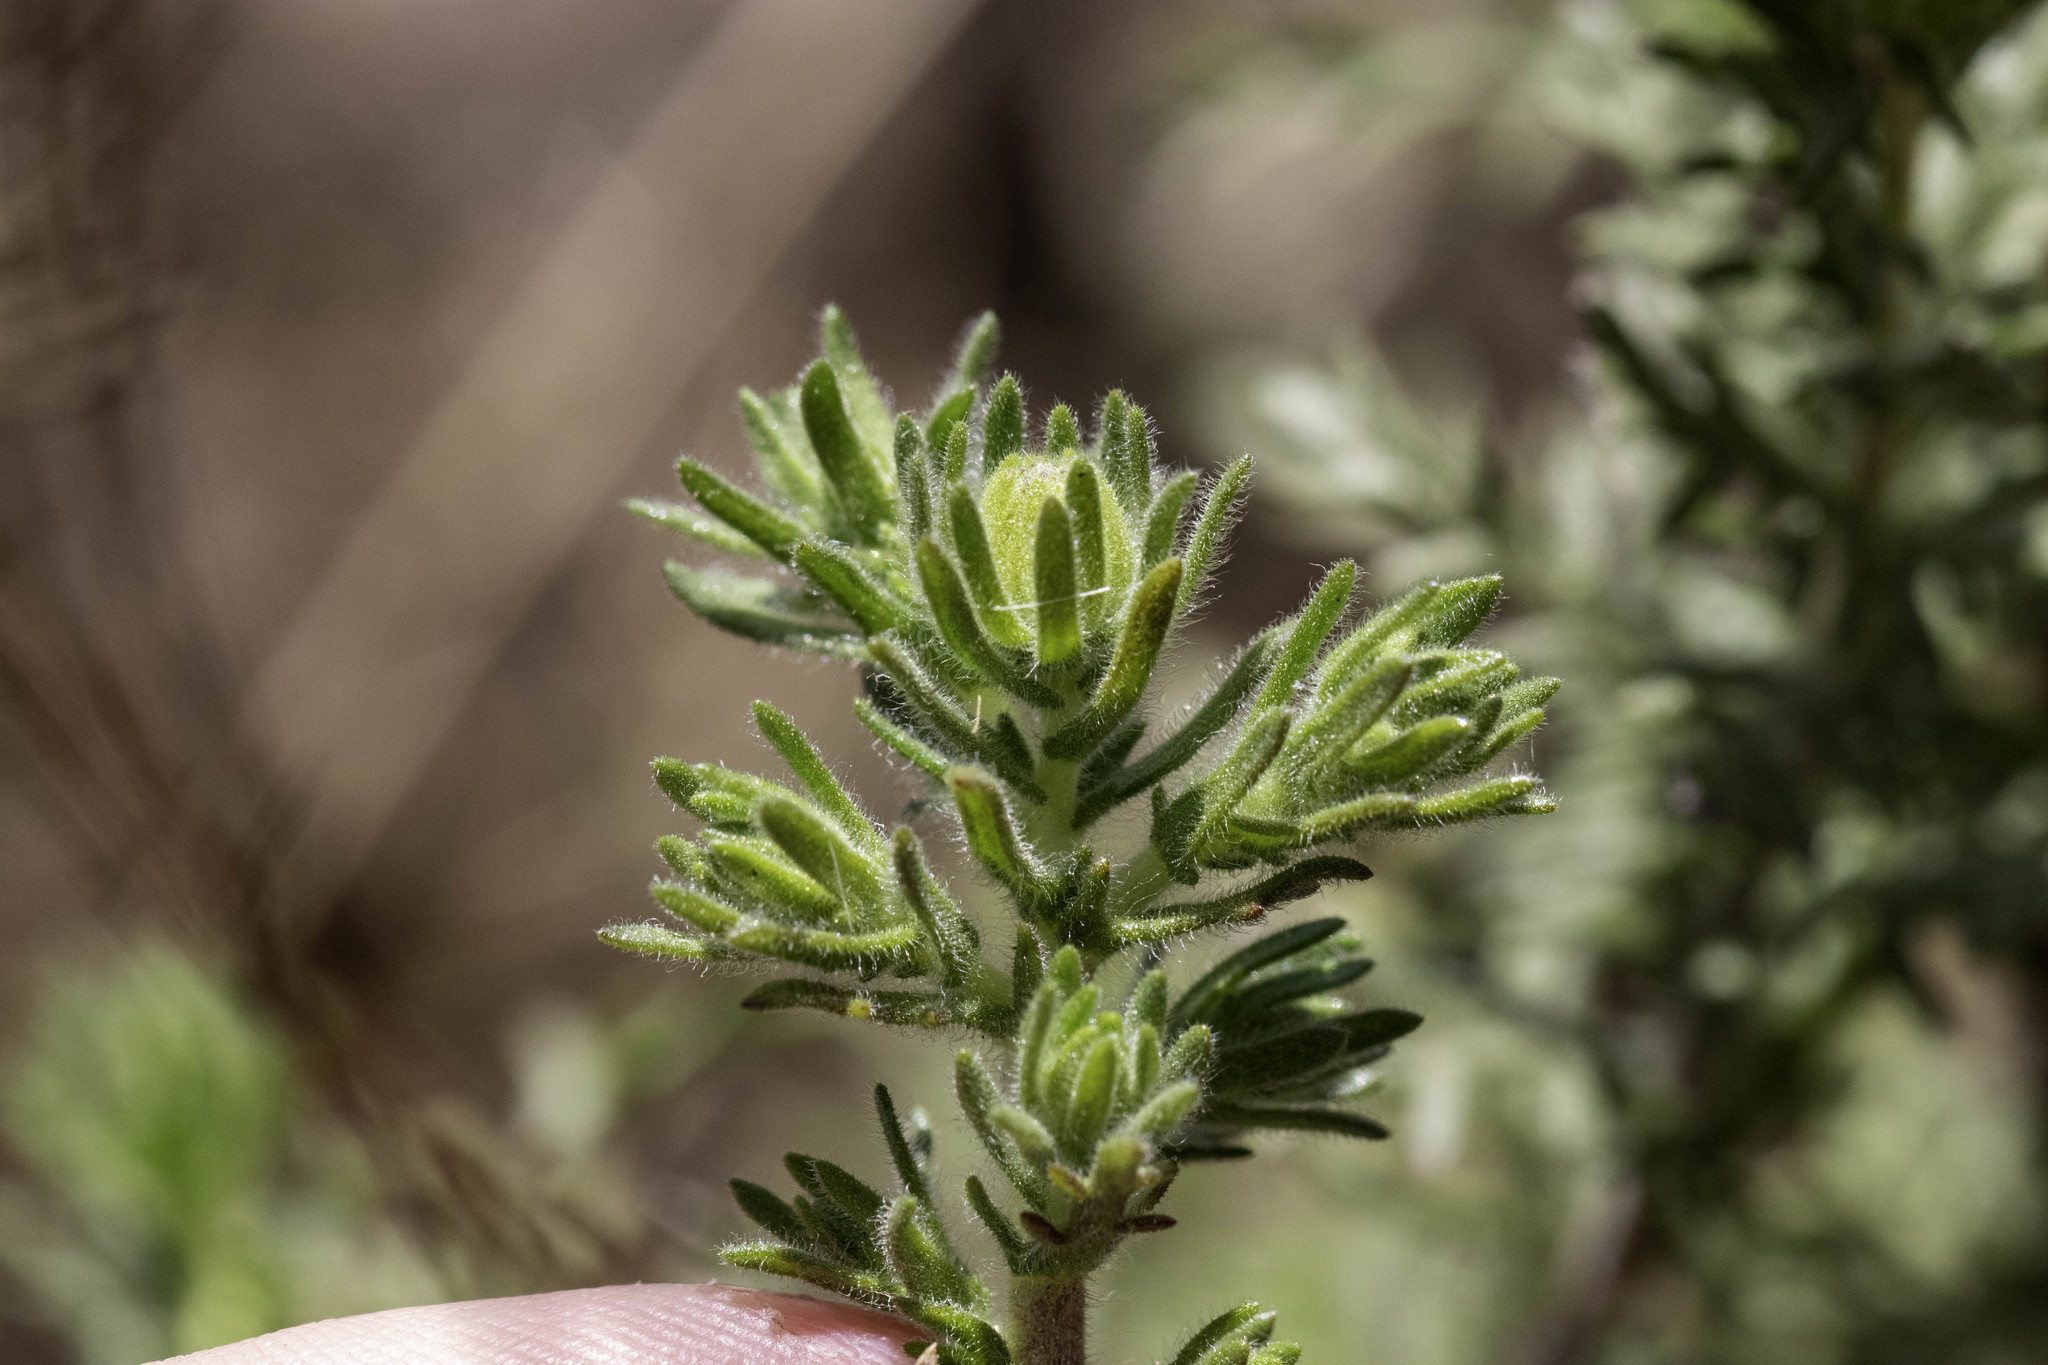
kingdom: Plantae
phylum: Tracheophyta
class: Magnoliopsida
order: Asterales
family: Asteraceae
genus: Deinandra
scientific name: Deinandra increscens
